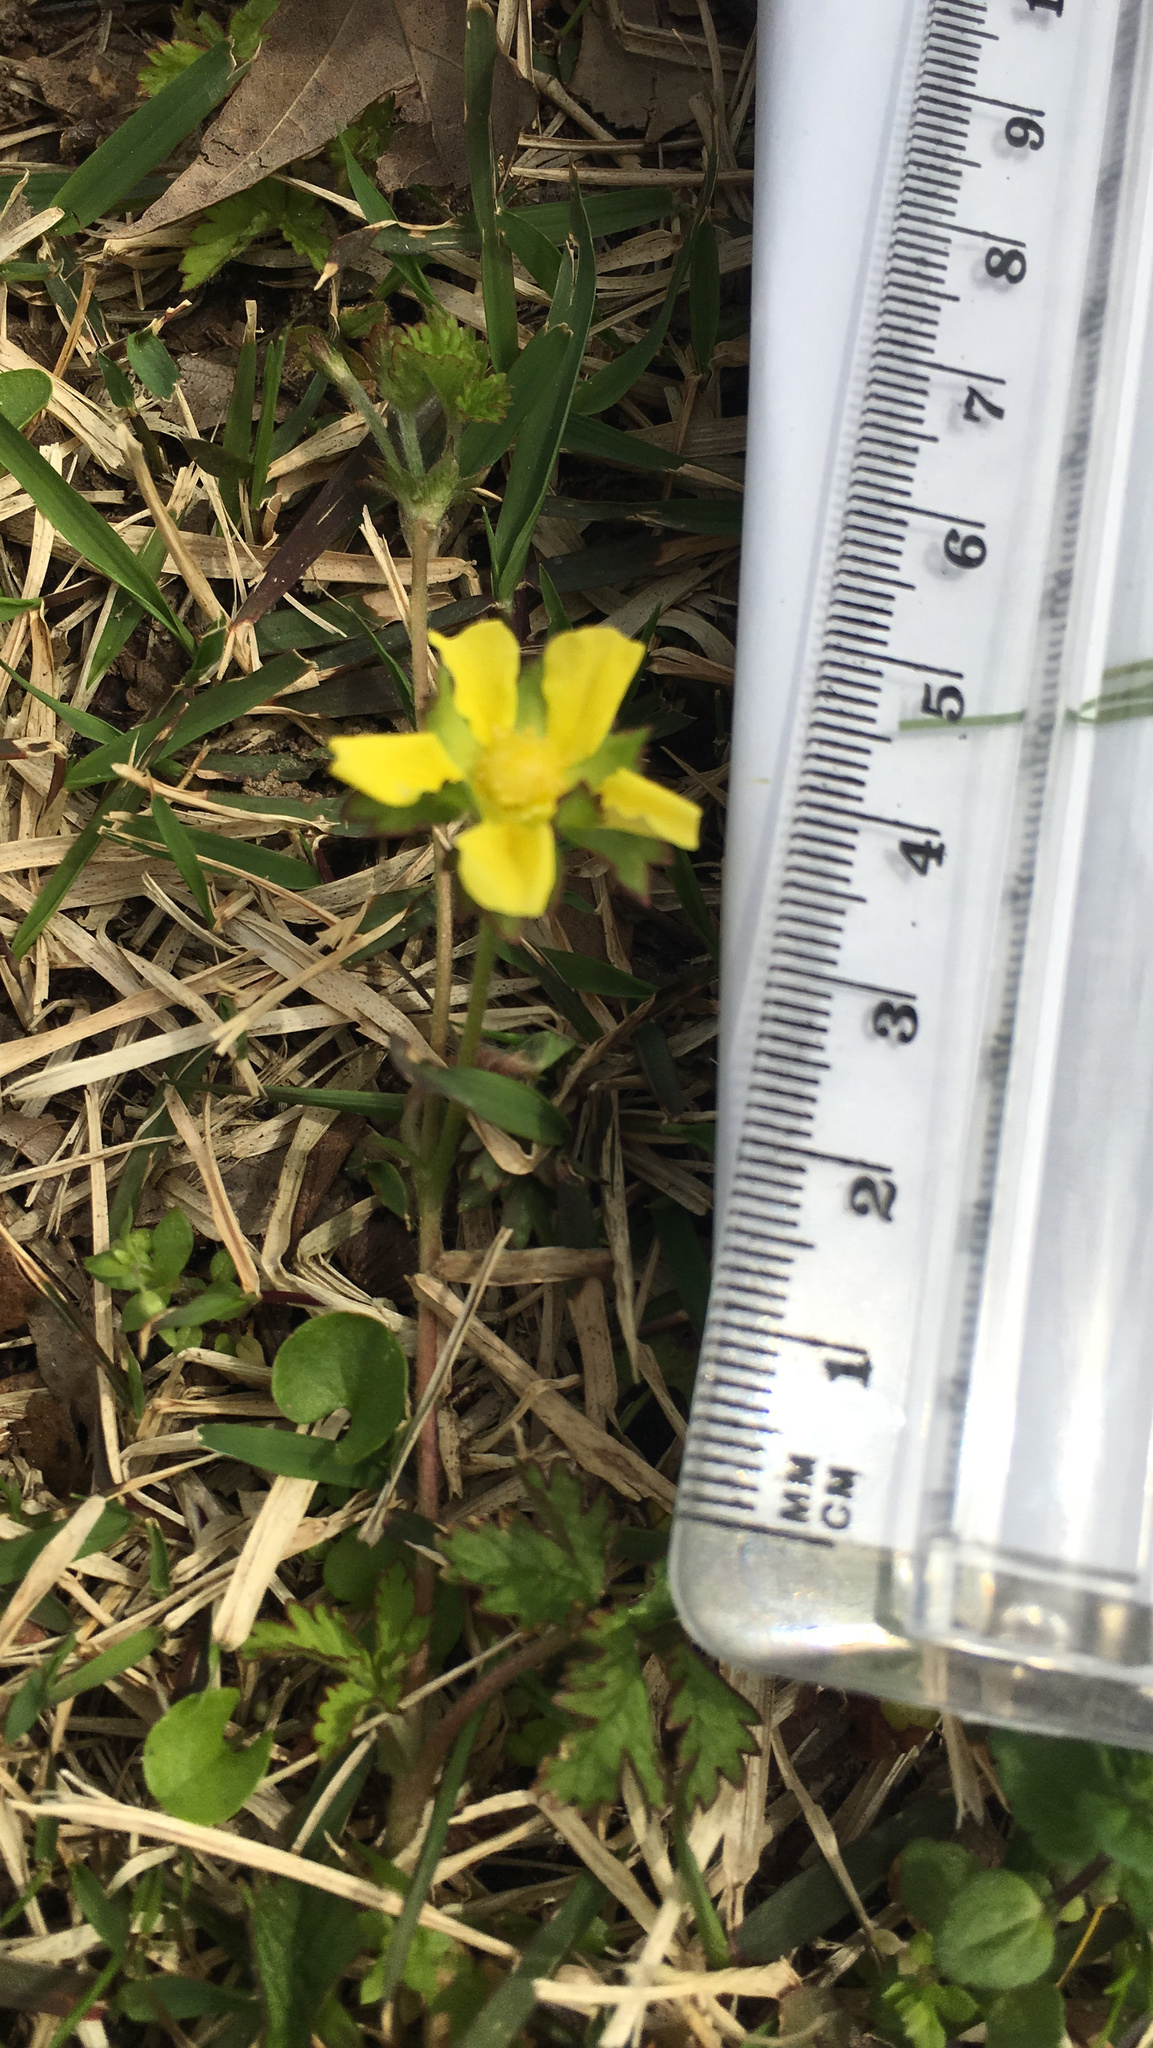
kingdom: Plantae
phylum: Tracheophyta
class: Magnoliopsida
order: Rosales
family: Rosaceae
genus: Potentilla
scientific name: Potentilla indica
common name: Yellow-flowered strawberry
